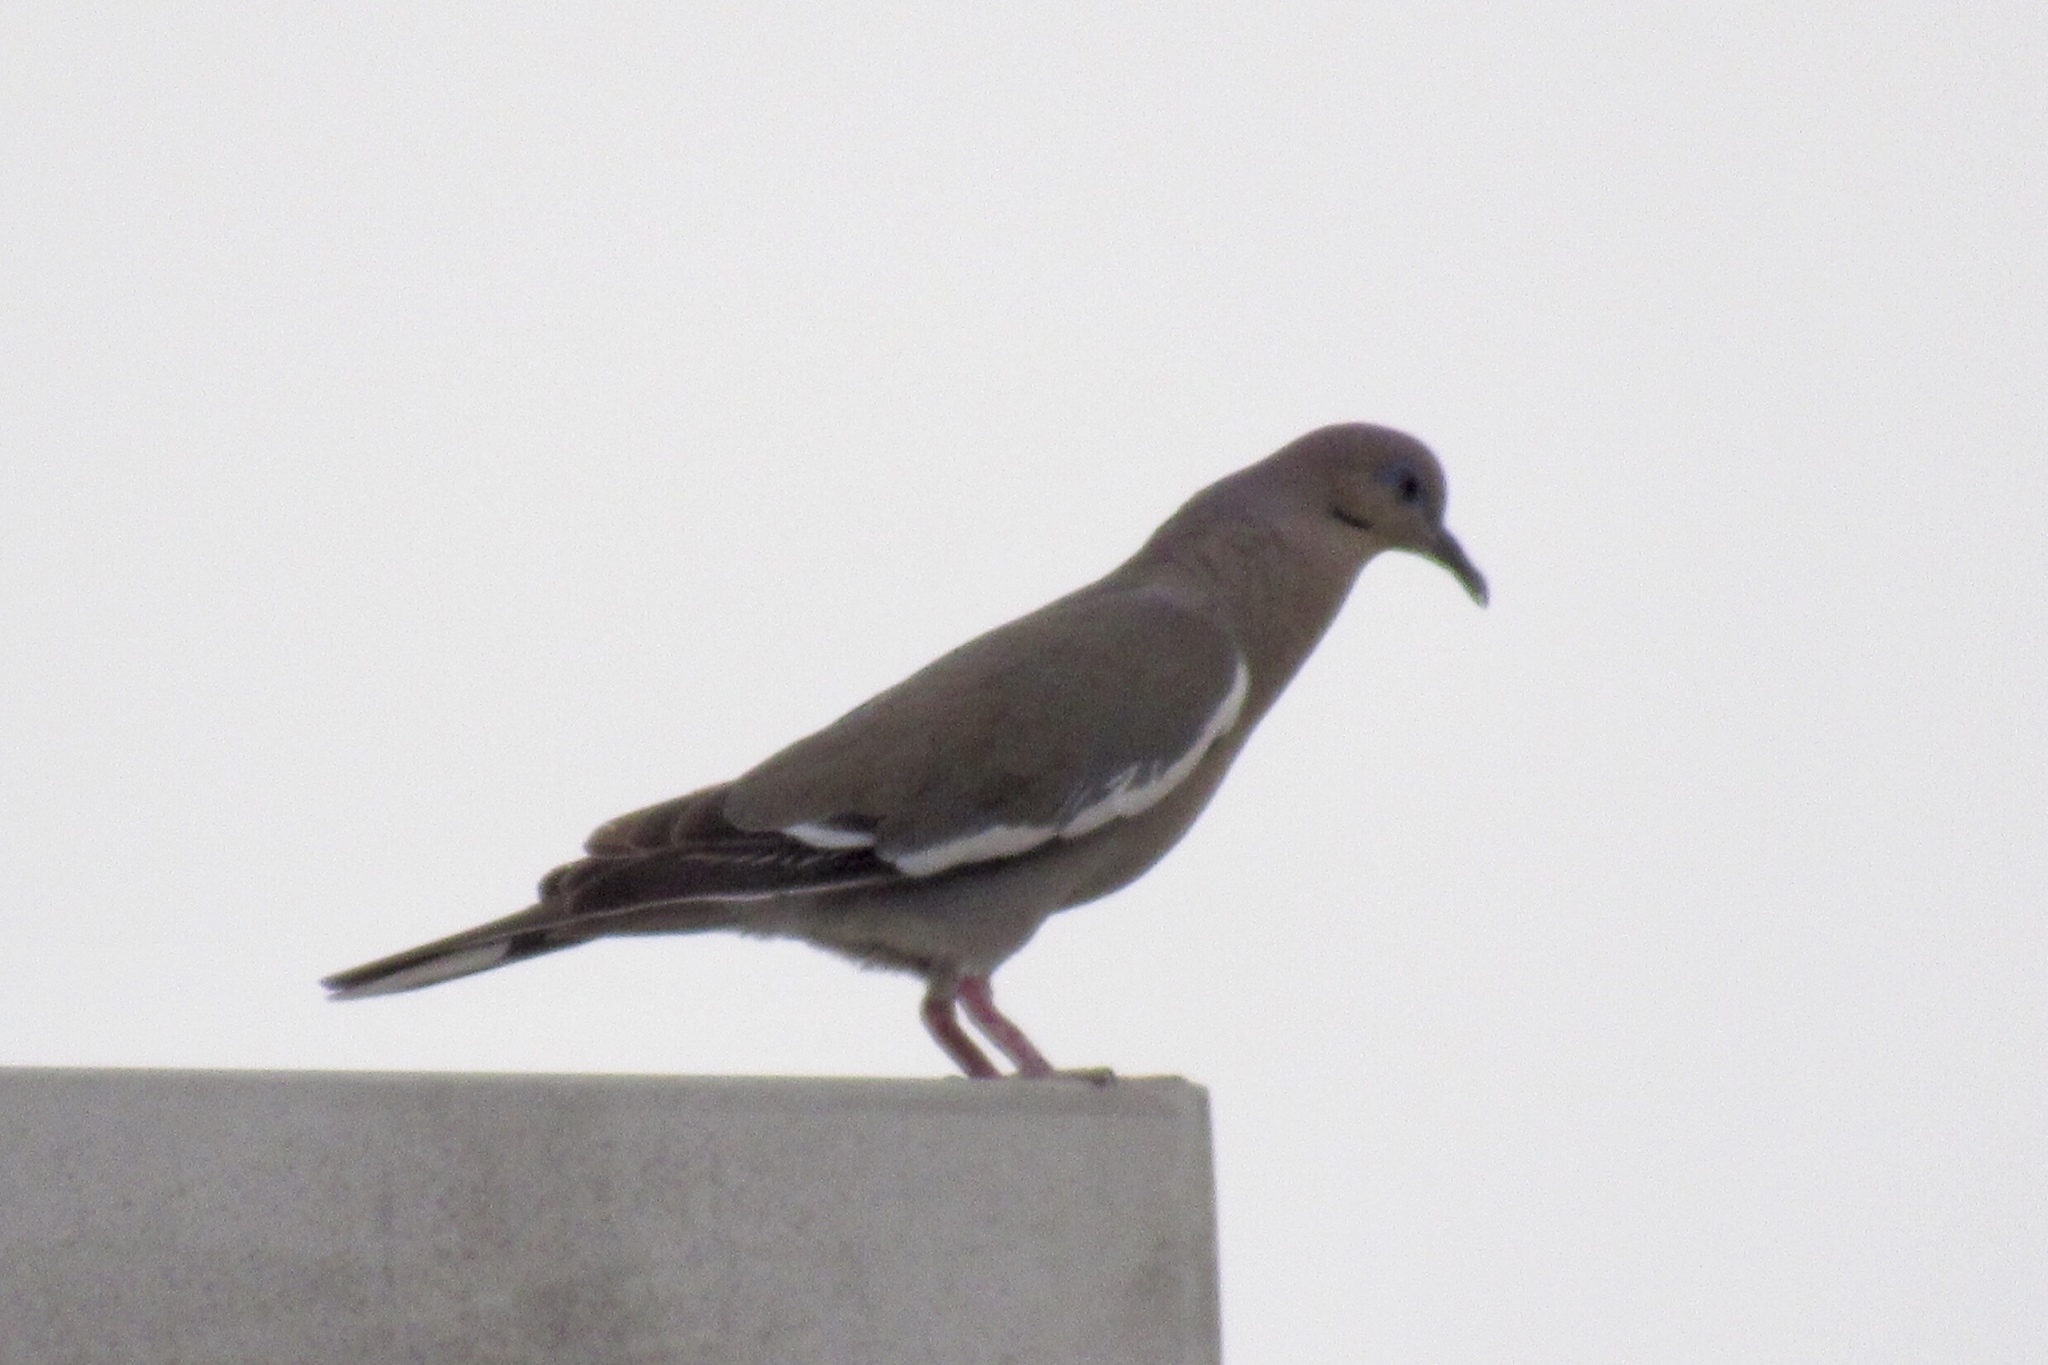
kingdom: Animalia
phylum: Chordata
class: Aves
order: Columbiformes
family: Columbidae
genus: Zenaida
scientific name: Zenaida asiatica
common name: White-winged dove
